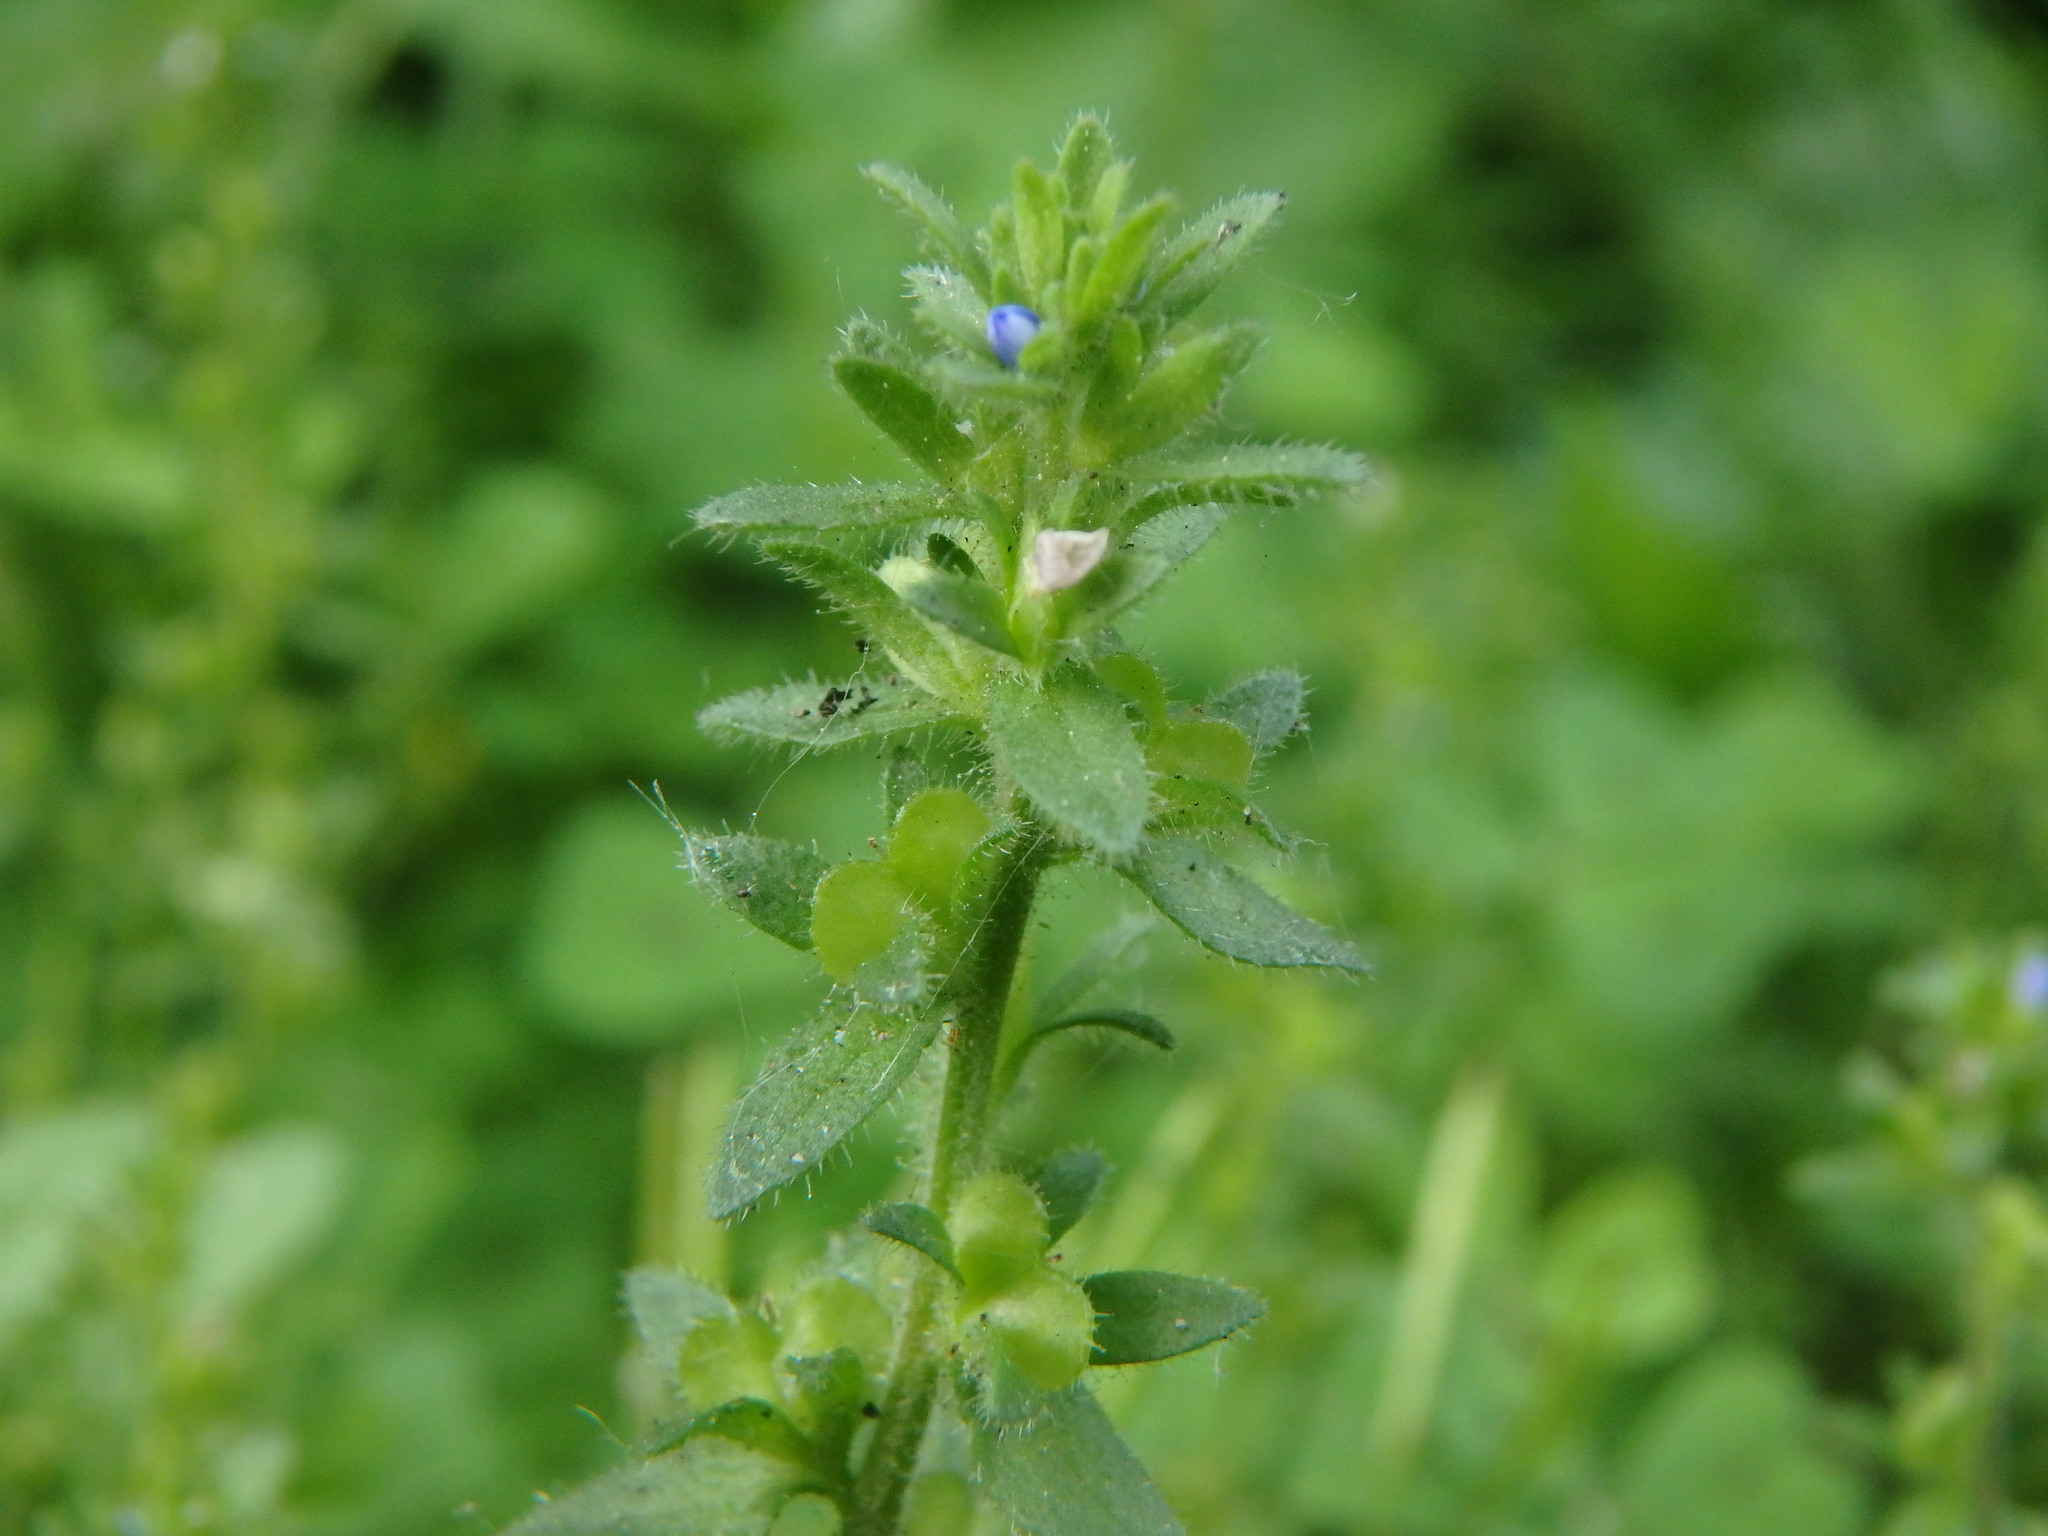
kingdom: Plantae
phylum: Tracheophyta
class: Magnoliopsida
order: Lamiales
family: Plantaginaceae
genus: Veronica
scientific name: Veronica arvensis
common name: Corn speedwell
